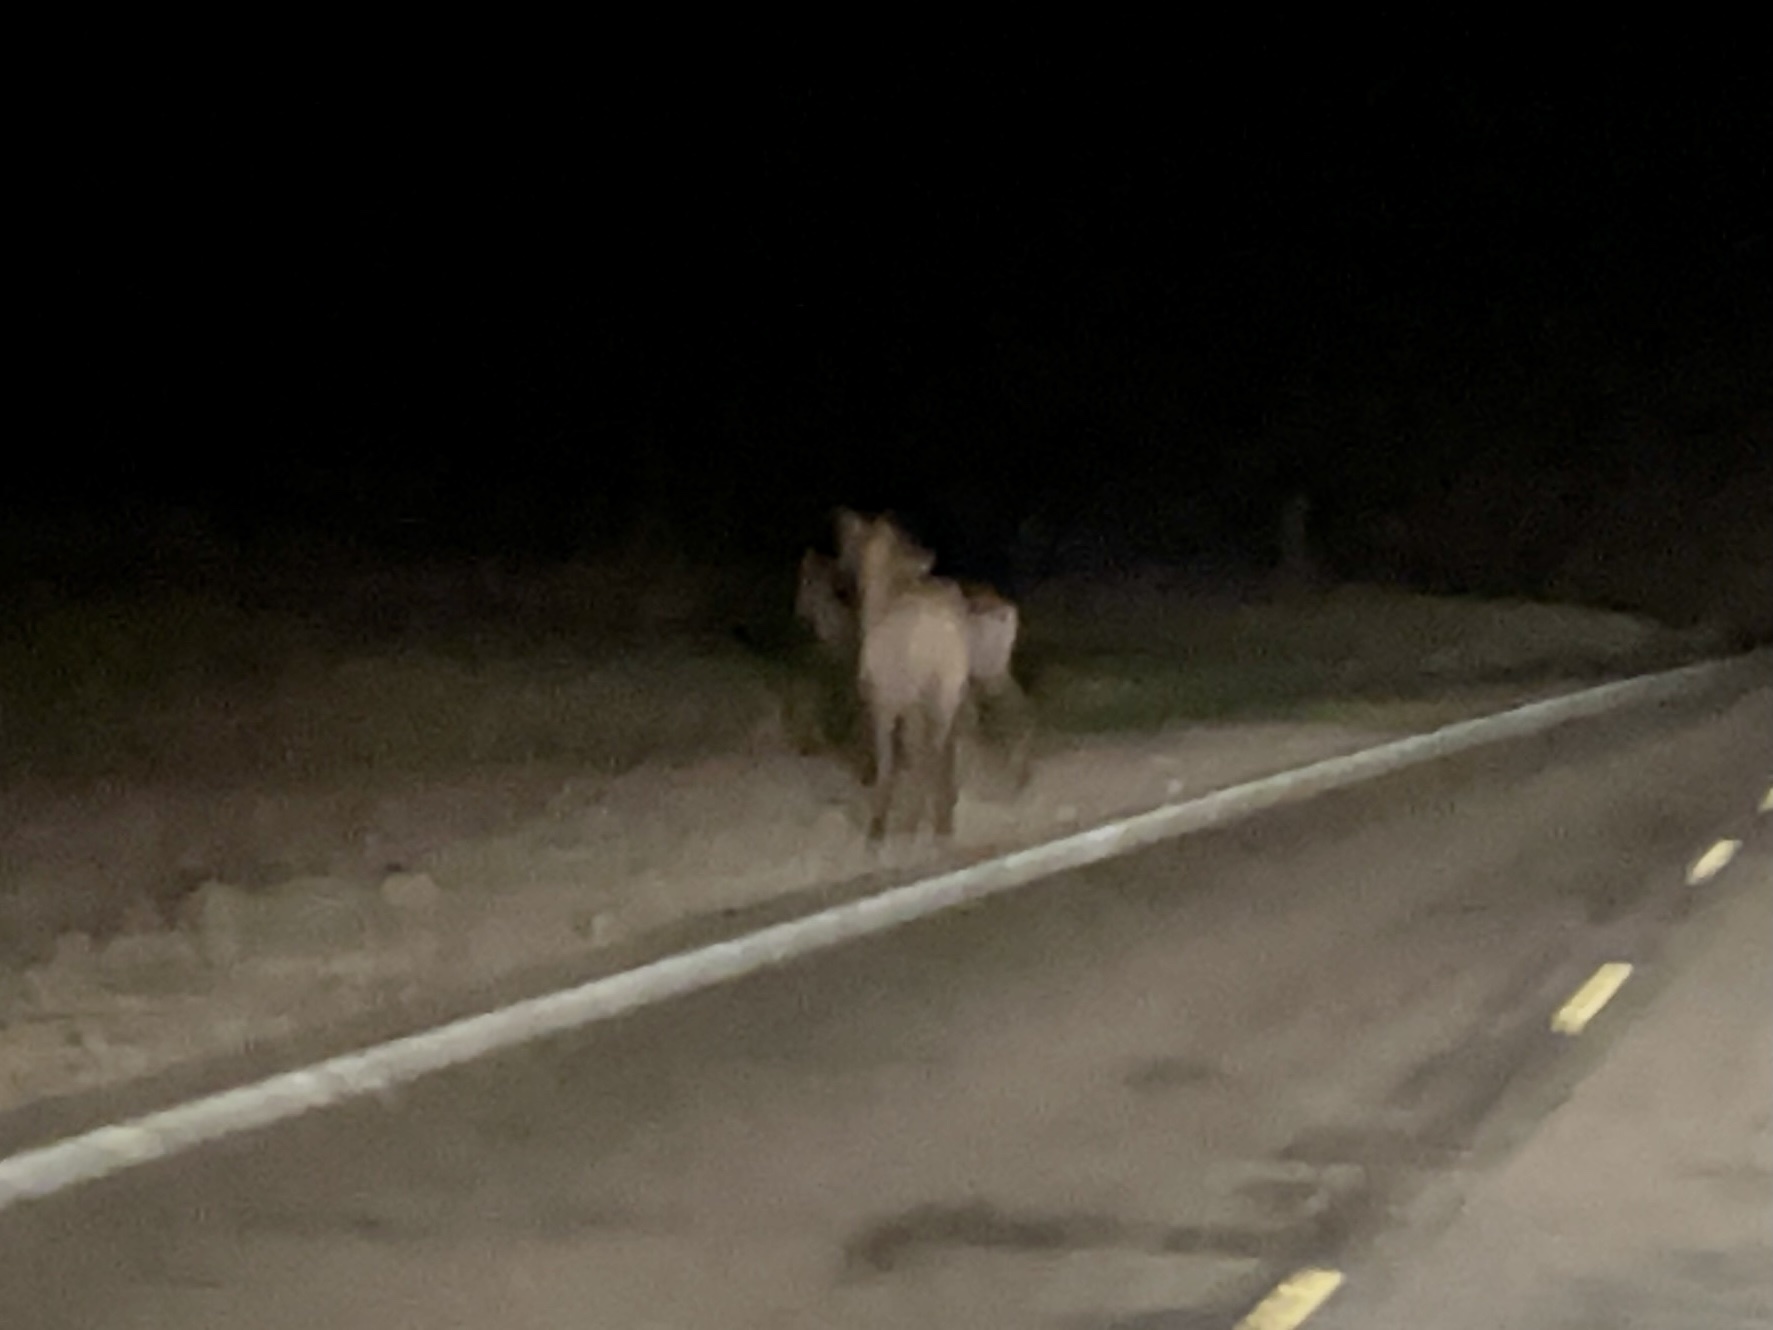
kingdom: Animalia
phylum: Chordata
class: Mammalia
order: Artiodactyla
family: Cervidae
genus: Cervus
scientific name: Cervus elaphus
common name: Red deer
